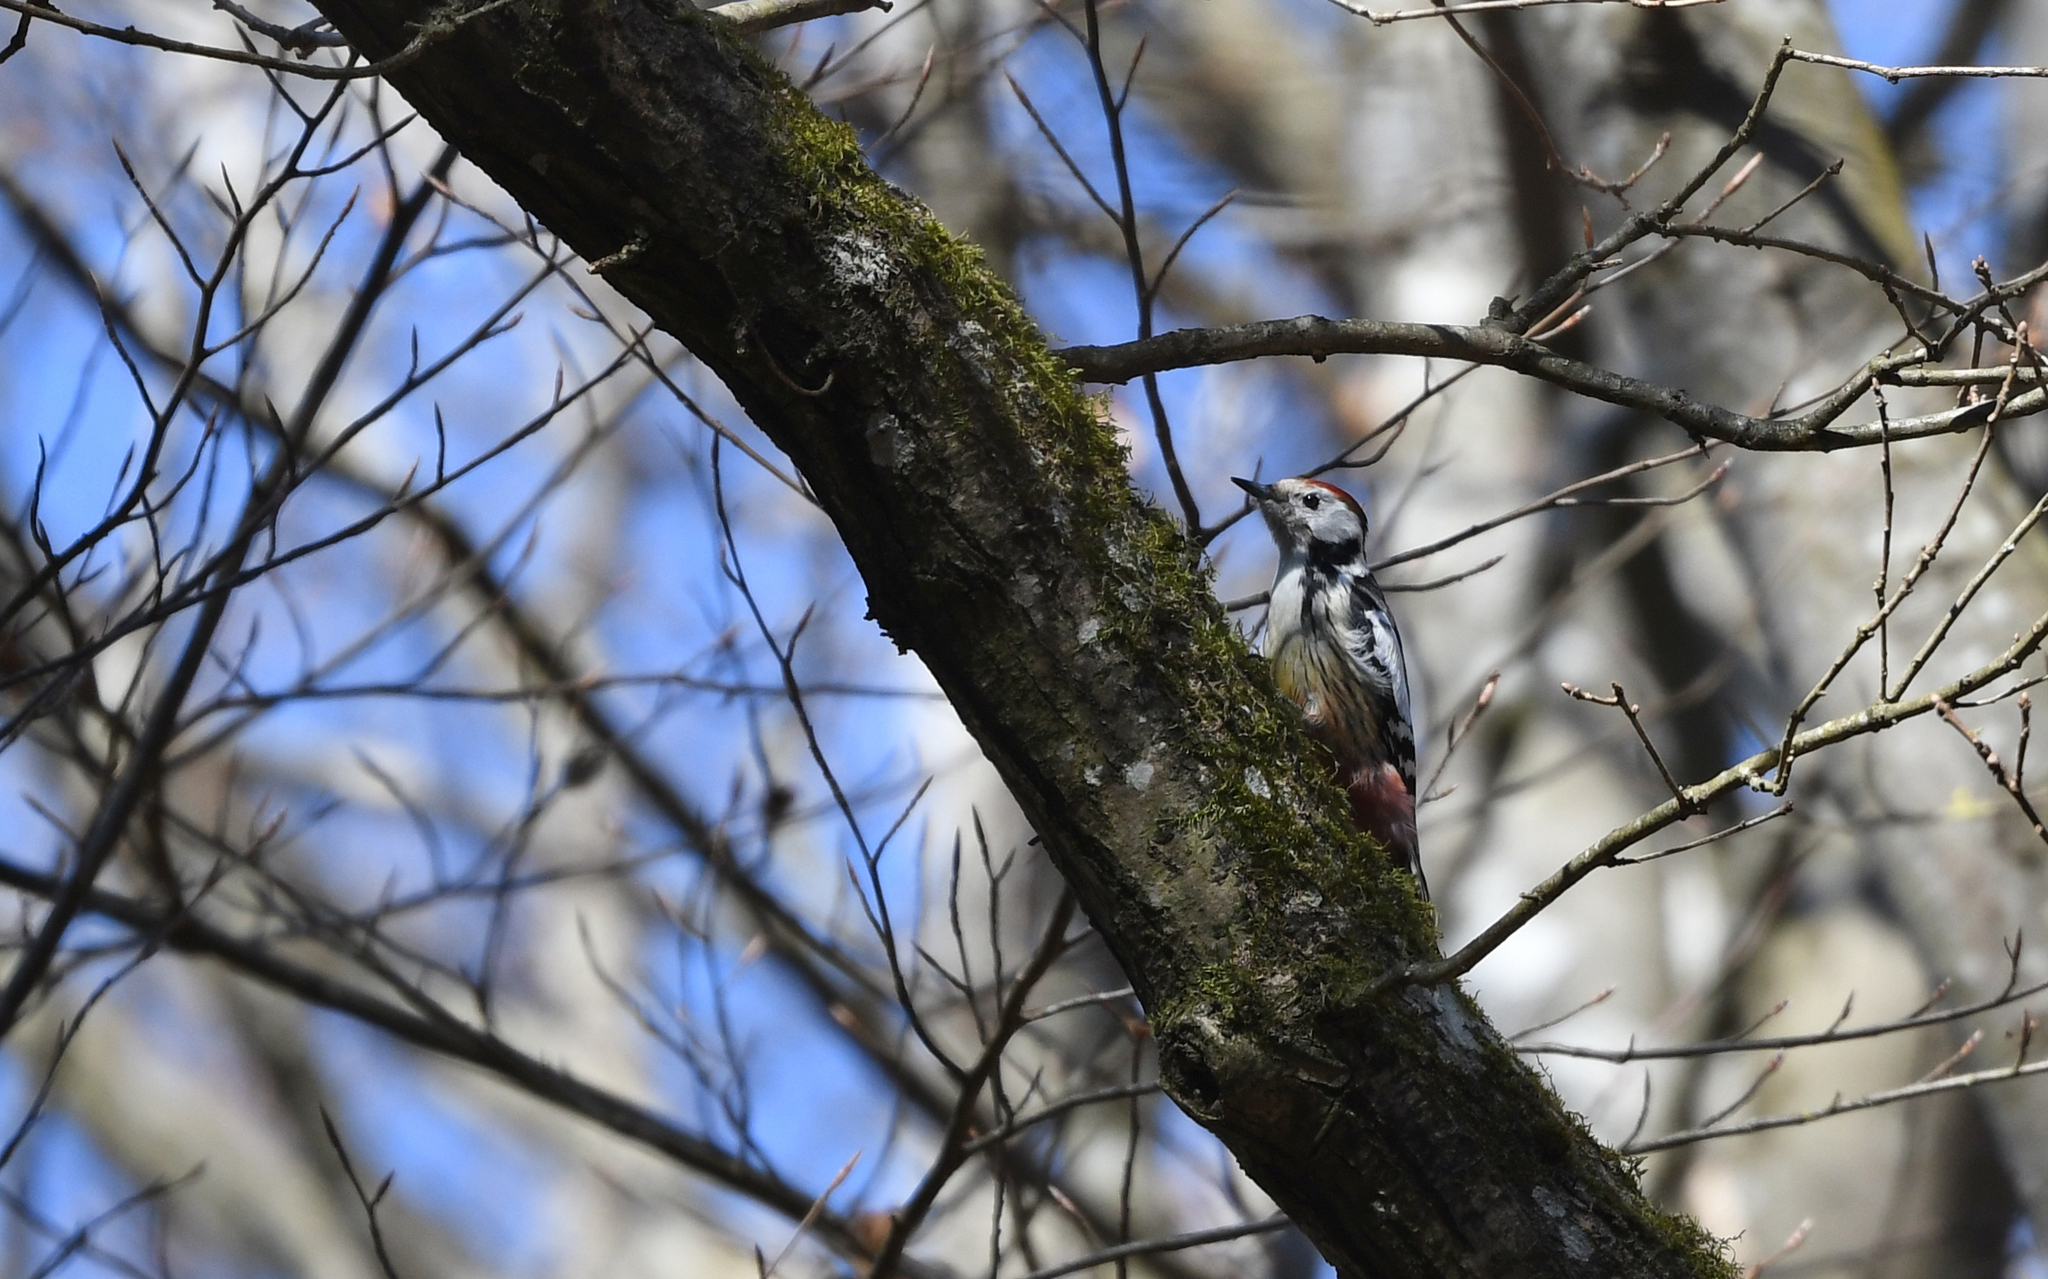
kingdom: Animalia
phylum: Chordata
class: Aves
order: Piciformes
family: Picidae
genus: Dendrocoptes
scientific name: Dendrocoptes medius
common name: Middle spotted woodpecker
